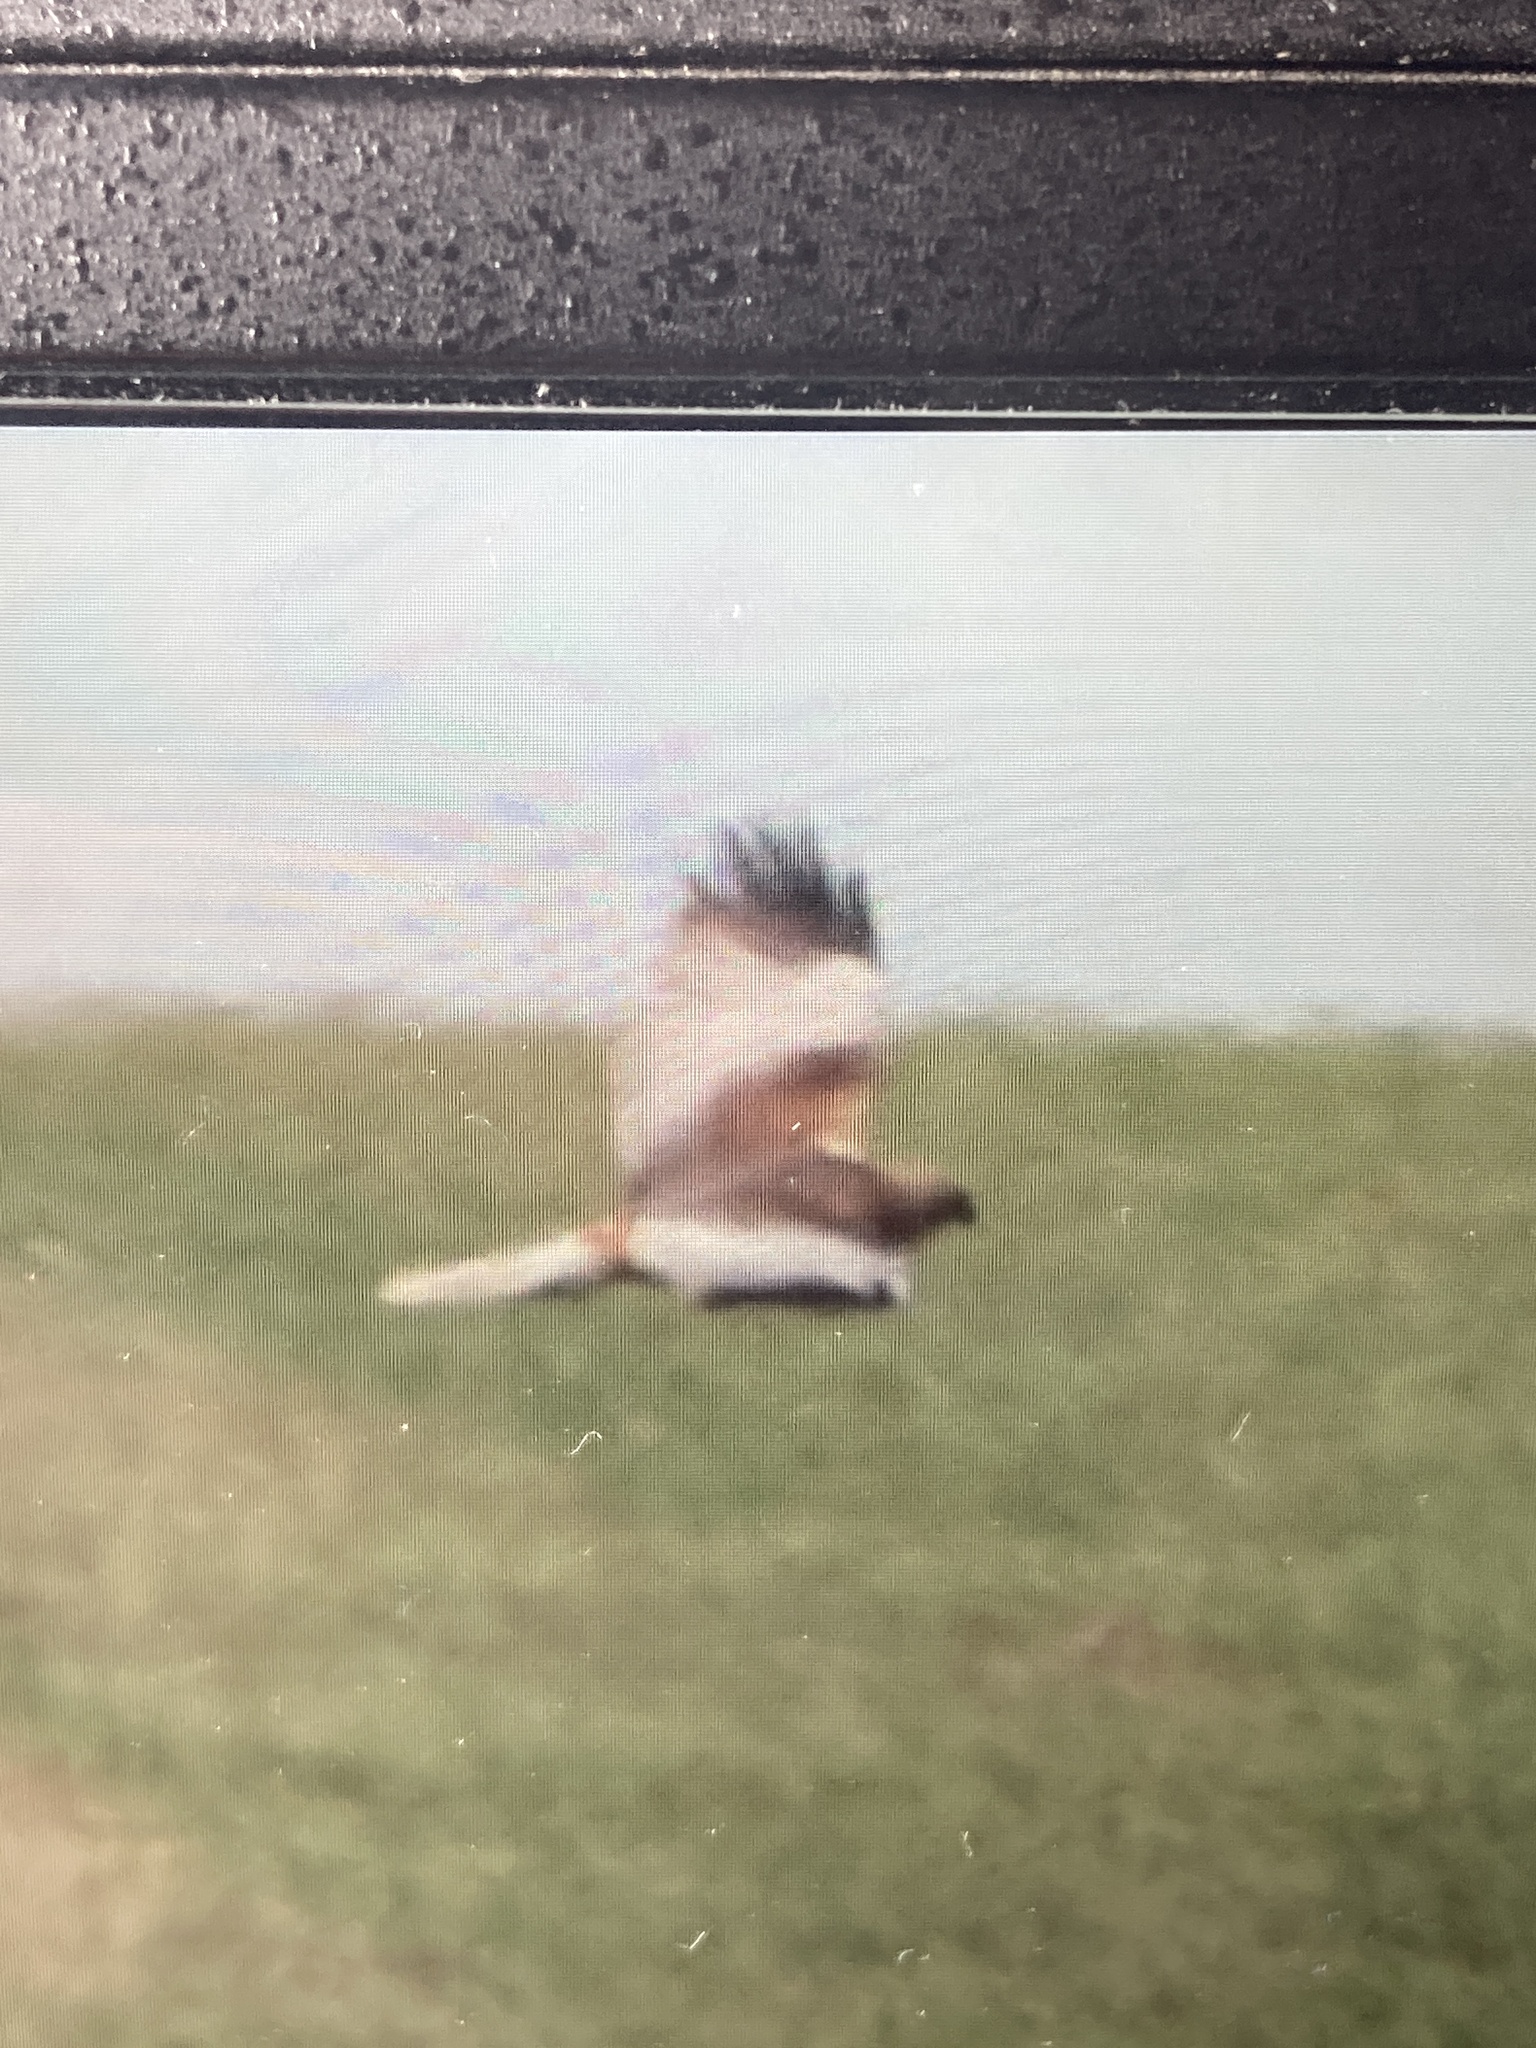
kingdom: Animalia
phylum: Chordata
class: Aves
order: Accipitriformes
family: Accipitridae
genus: Circus
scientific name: Circus aeruginosus
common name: Western marsh harrier
